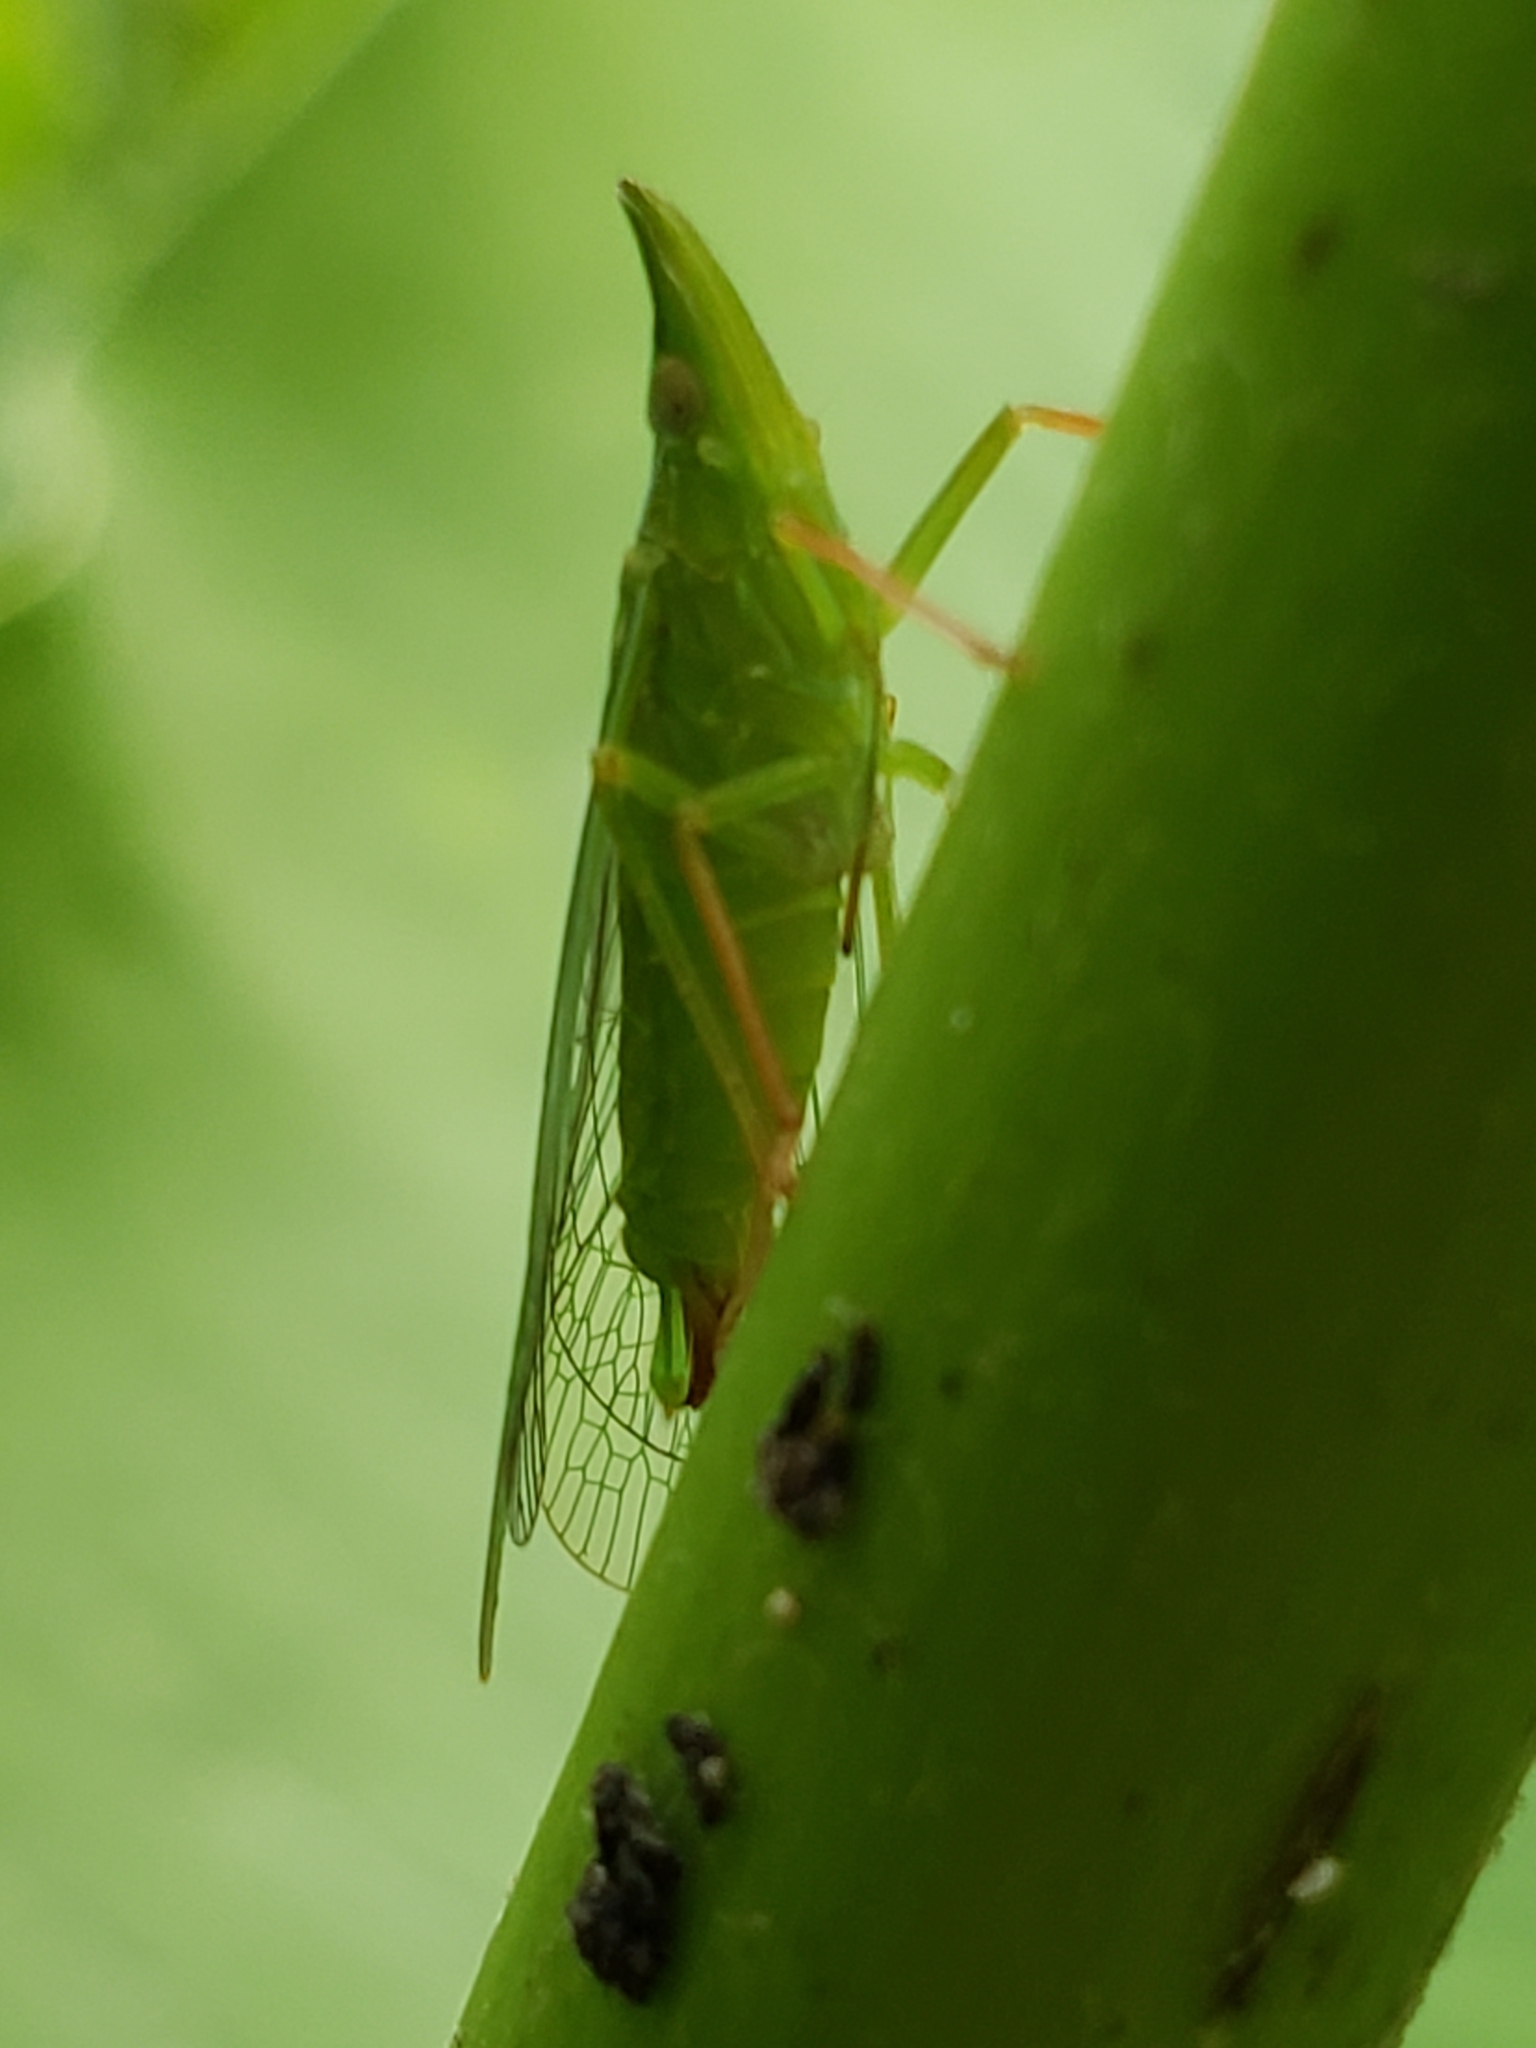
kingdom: Animalia
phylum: Arthropoda
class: Insecta
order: Hemiptera
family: Dictyopharidae
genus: Rhynchomitra
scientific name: Rhynchomitra microrhina
